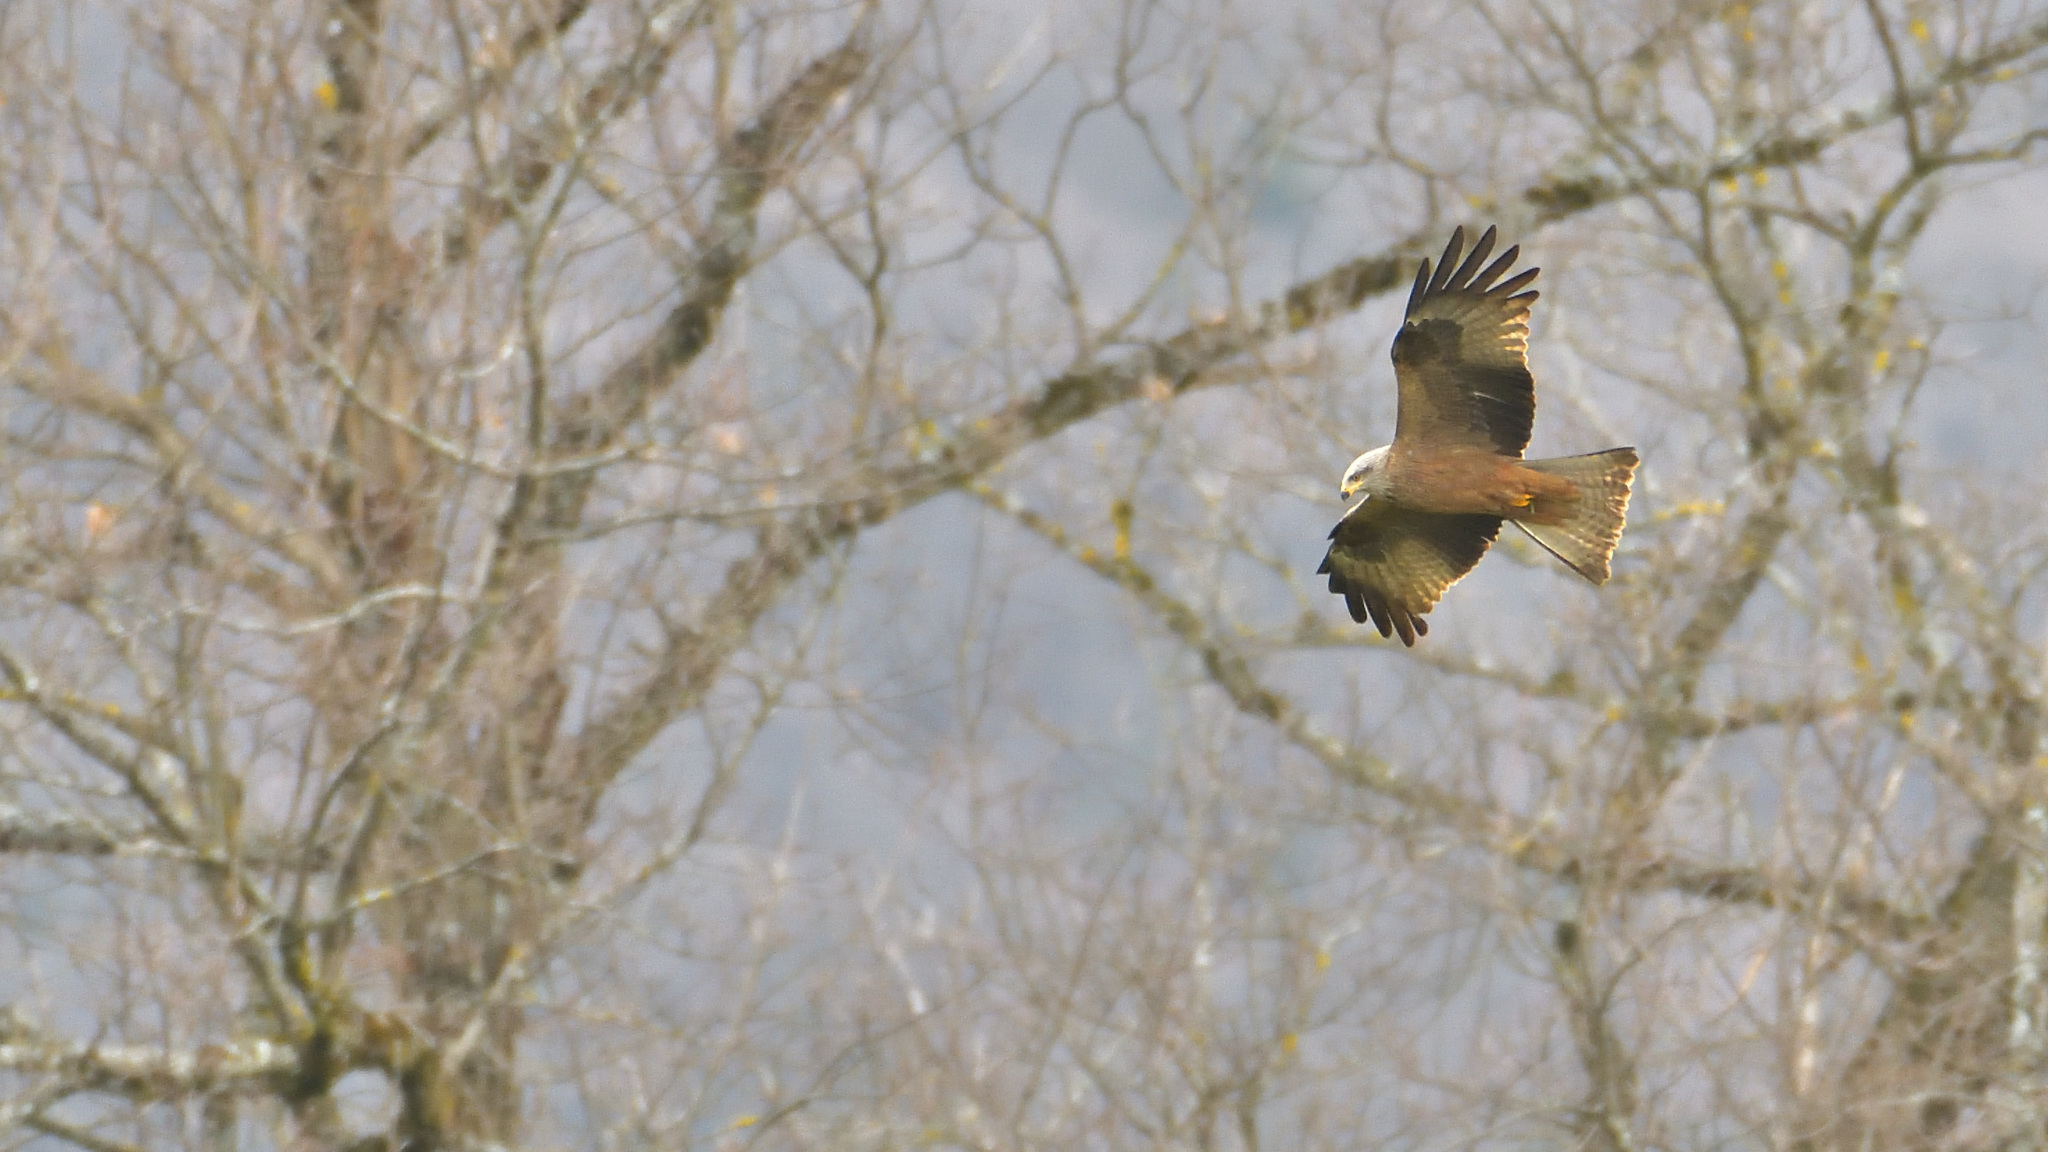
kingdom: Animalia
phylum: Chordata
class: Aves
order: Accipitriformes
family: Accipitridae
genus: Milvus
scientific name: Milvus milvus
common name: Red kite
